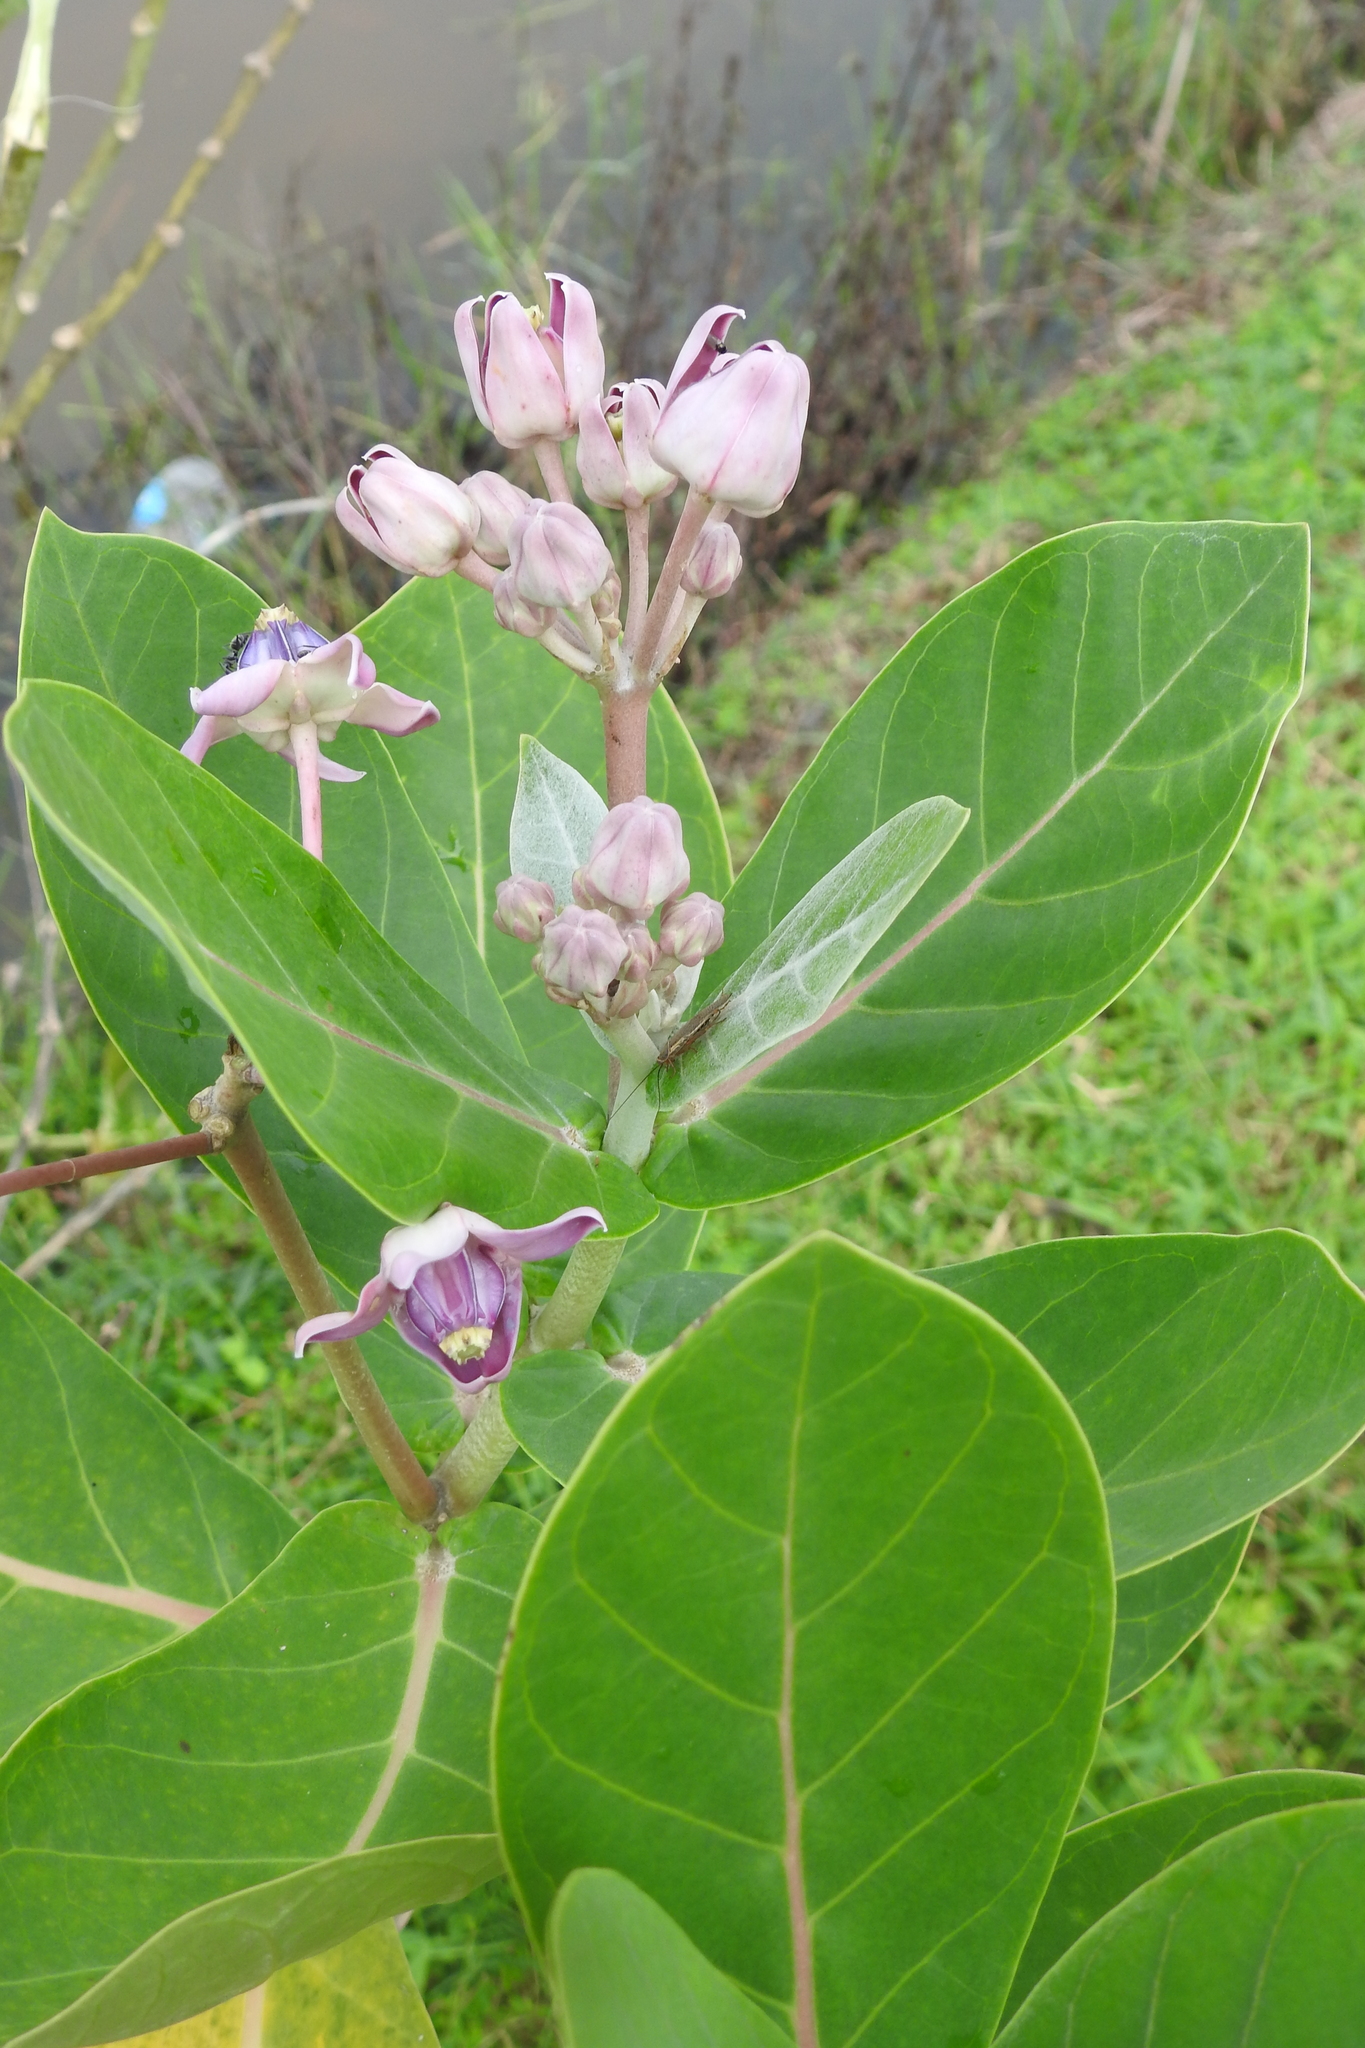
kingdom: Plantae
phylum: Tracheophyta
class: Magnoliopsida
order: Gentianales
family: Apocynaceae
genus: Calotropis
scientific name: Calotropis gigantea
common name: Crown flower
